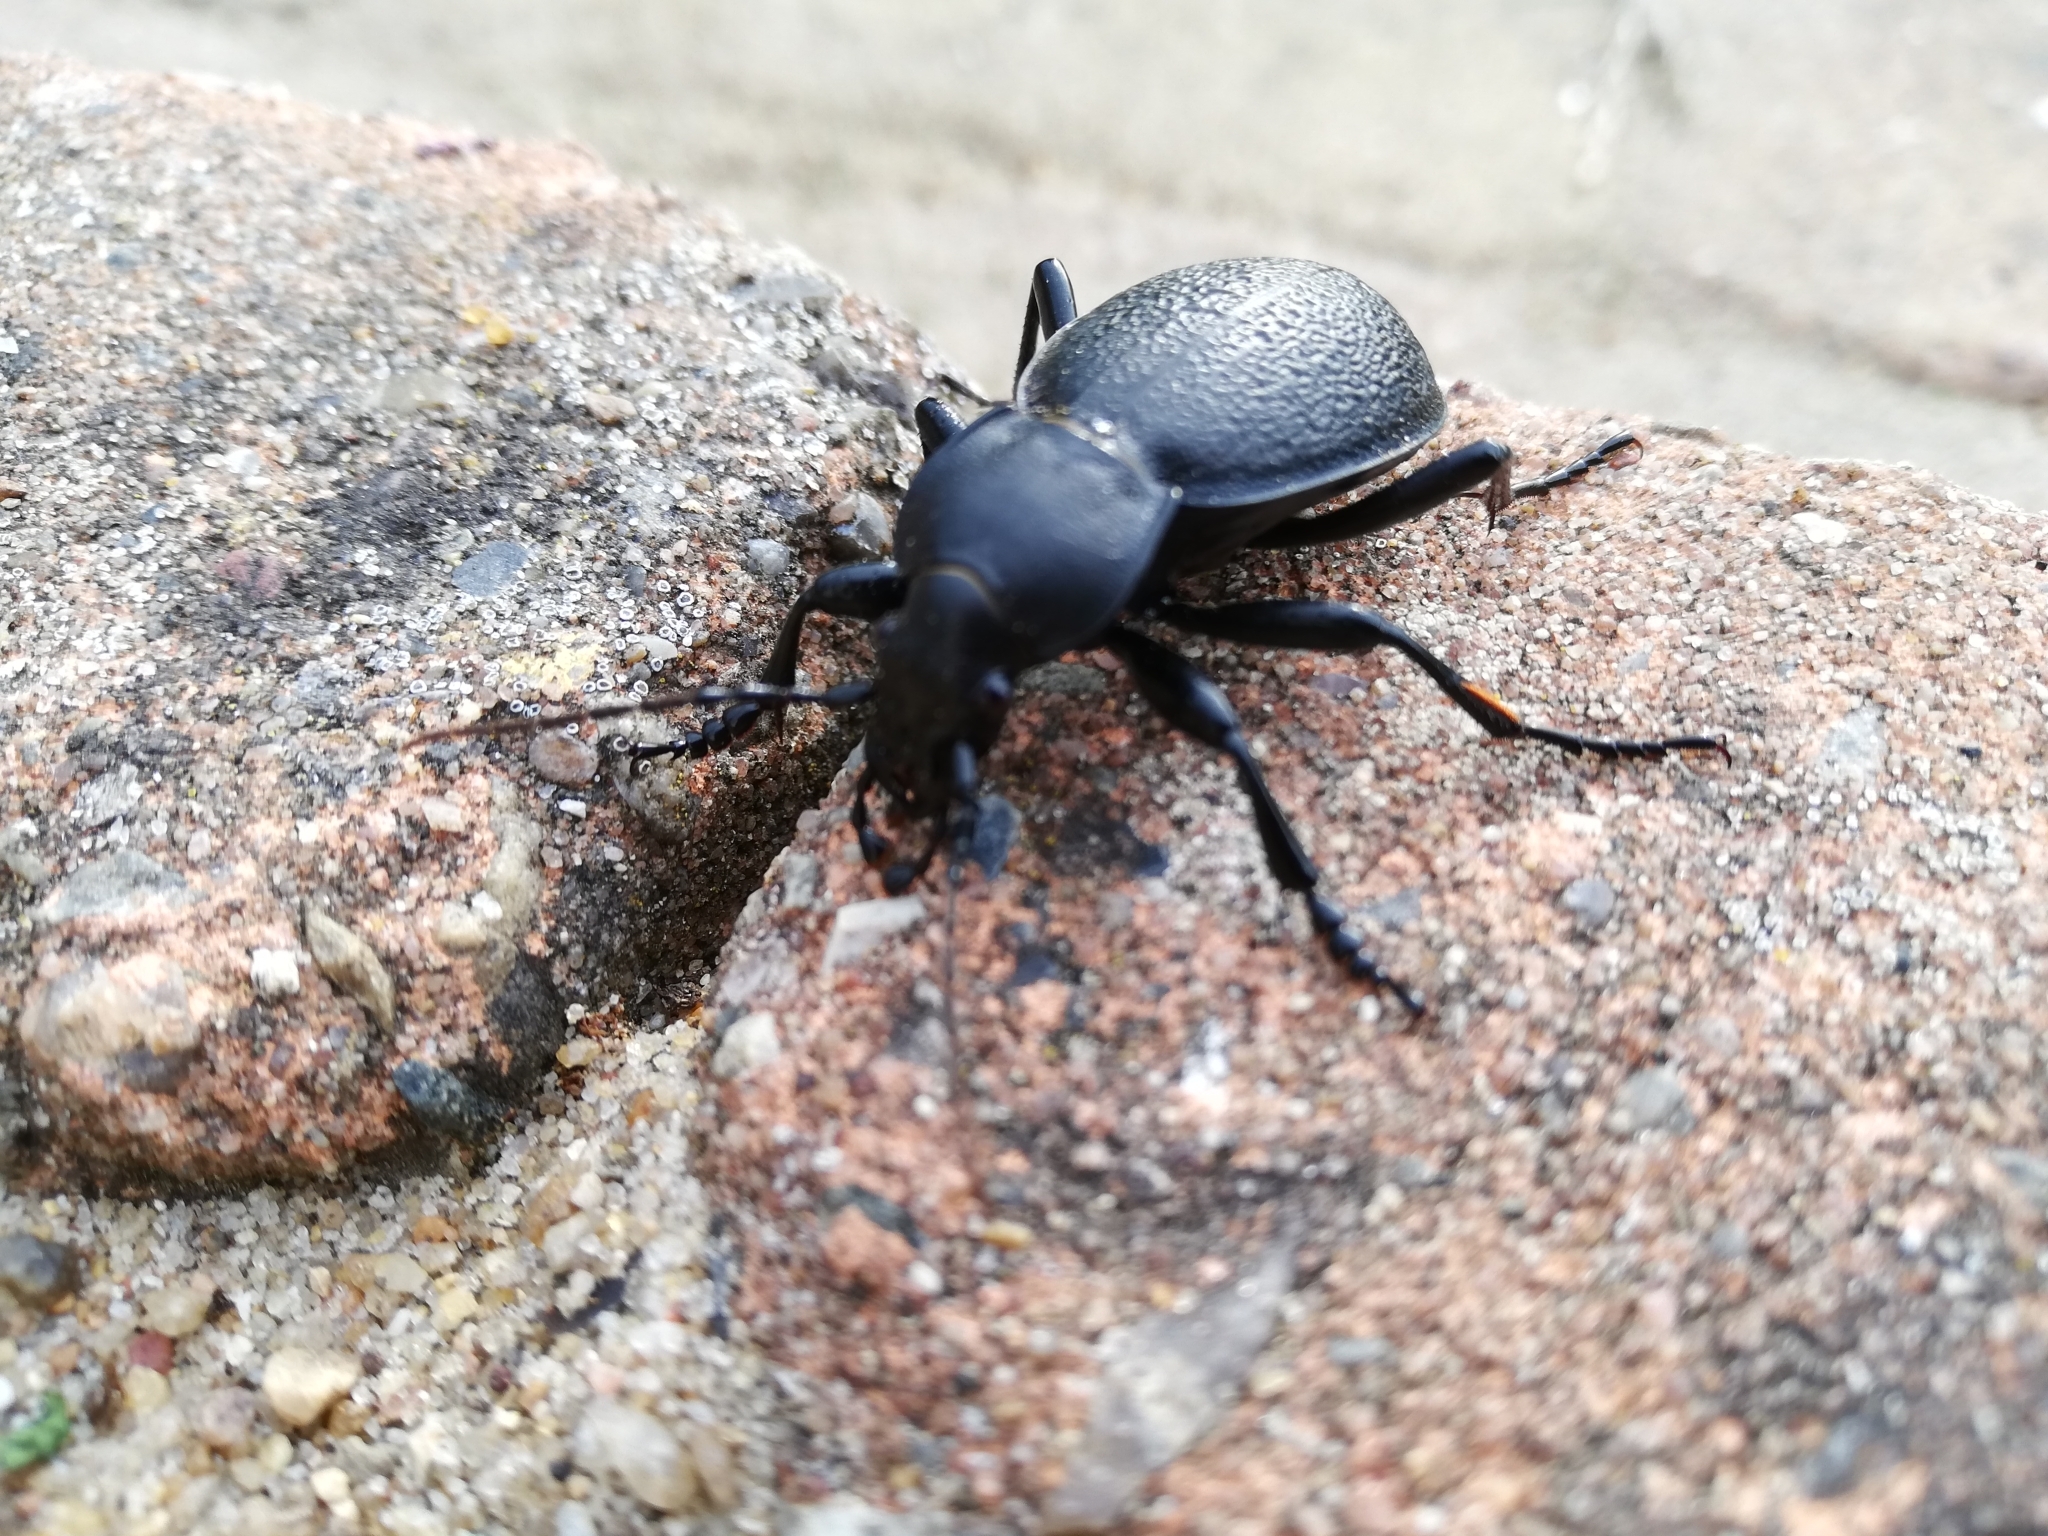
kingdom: Animalia
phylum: Arthropoda
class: Insecta
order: Coleoptera
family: Carabidae
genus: Carabus
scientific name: Carabus coriaceus
